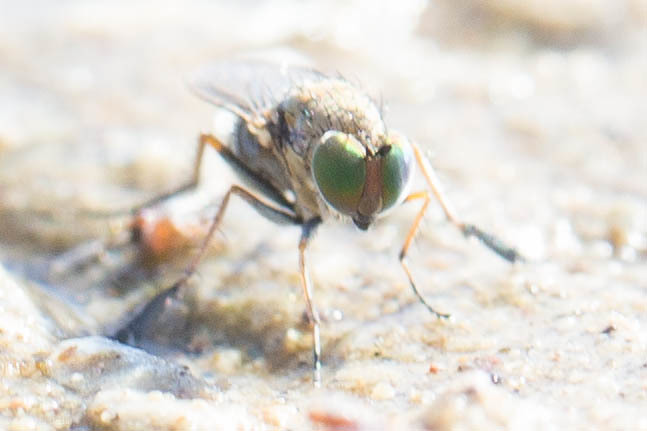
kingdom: Animalia
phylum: Arthropoda
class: Insecta
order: Diptera
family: Dolichopodidae
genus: Tachytrechus
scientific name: Tachytrechus granditarsis
